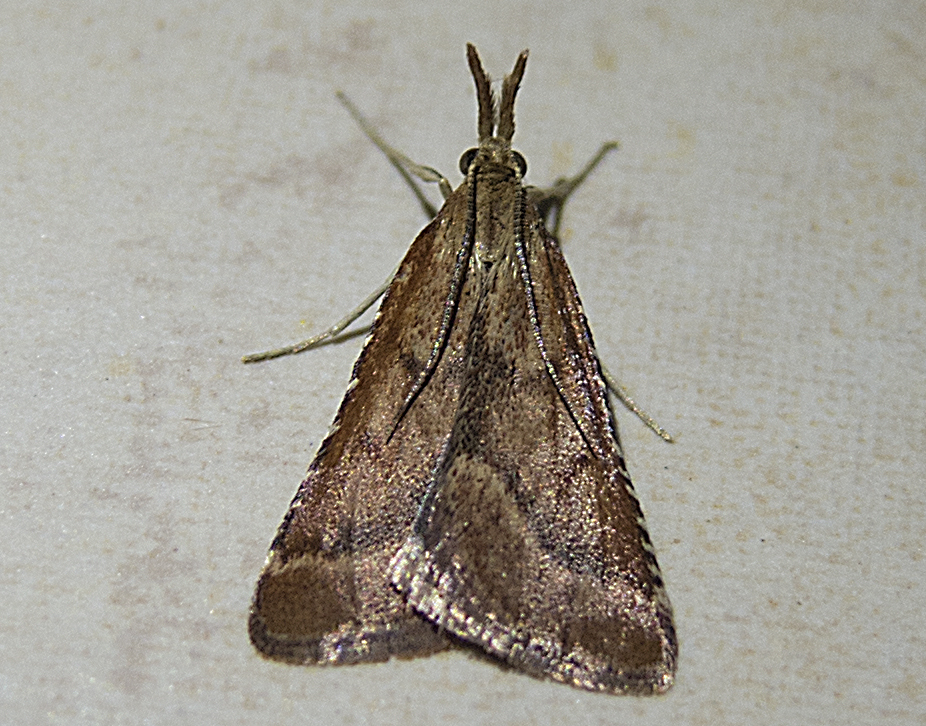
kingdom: Animalia
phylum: Arthropoda
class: Insecta
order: Lepidoptera
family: Pyralidae
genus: Synaphe
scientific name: Synaphe punctalis
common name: Long-legged tabby
